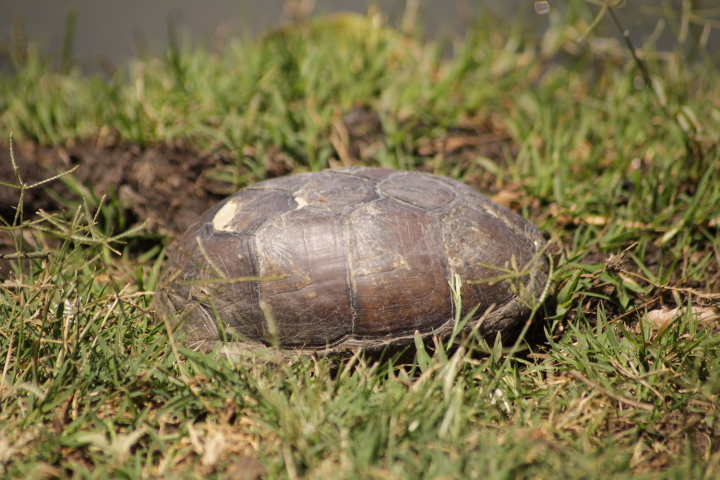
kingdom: Animalia
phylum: Chordata
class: Testudines
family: Kinosternidae
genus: Kinosternon
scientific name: Kinosternon integrum
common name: Mexican mud turtle
